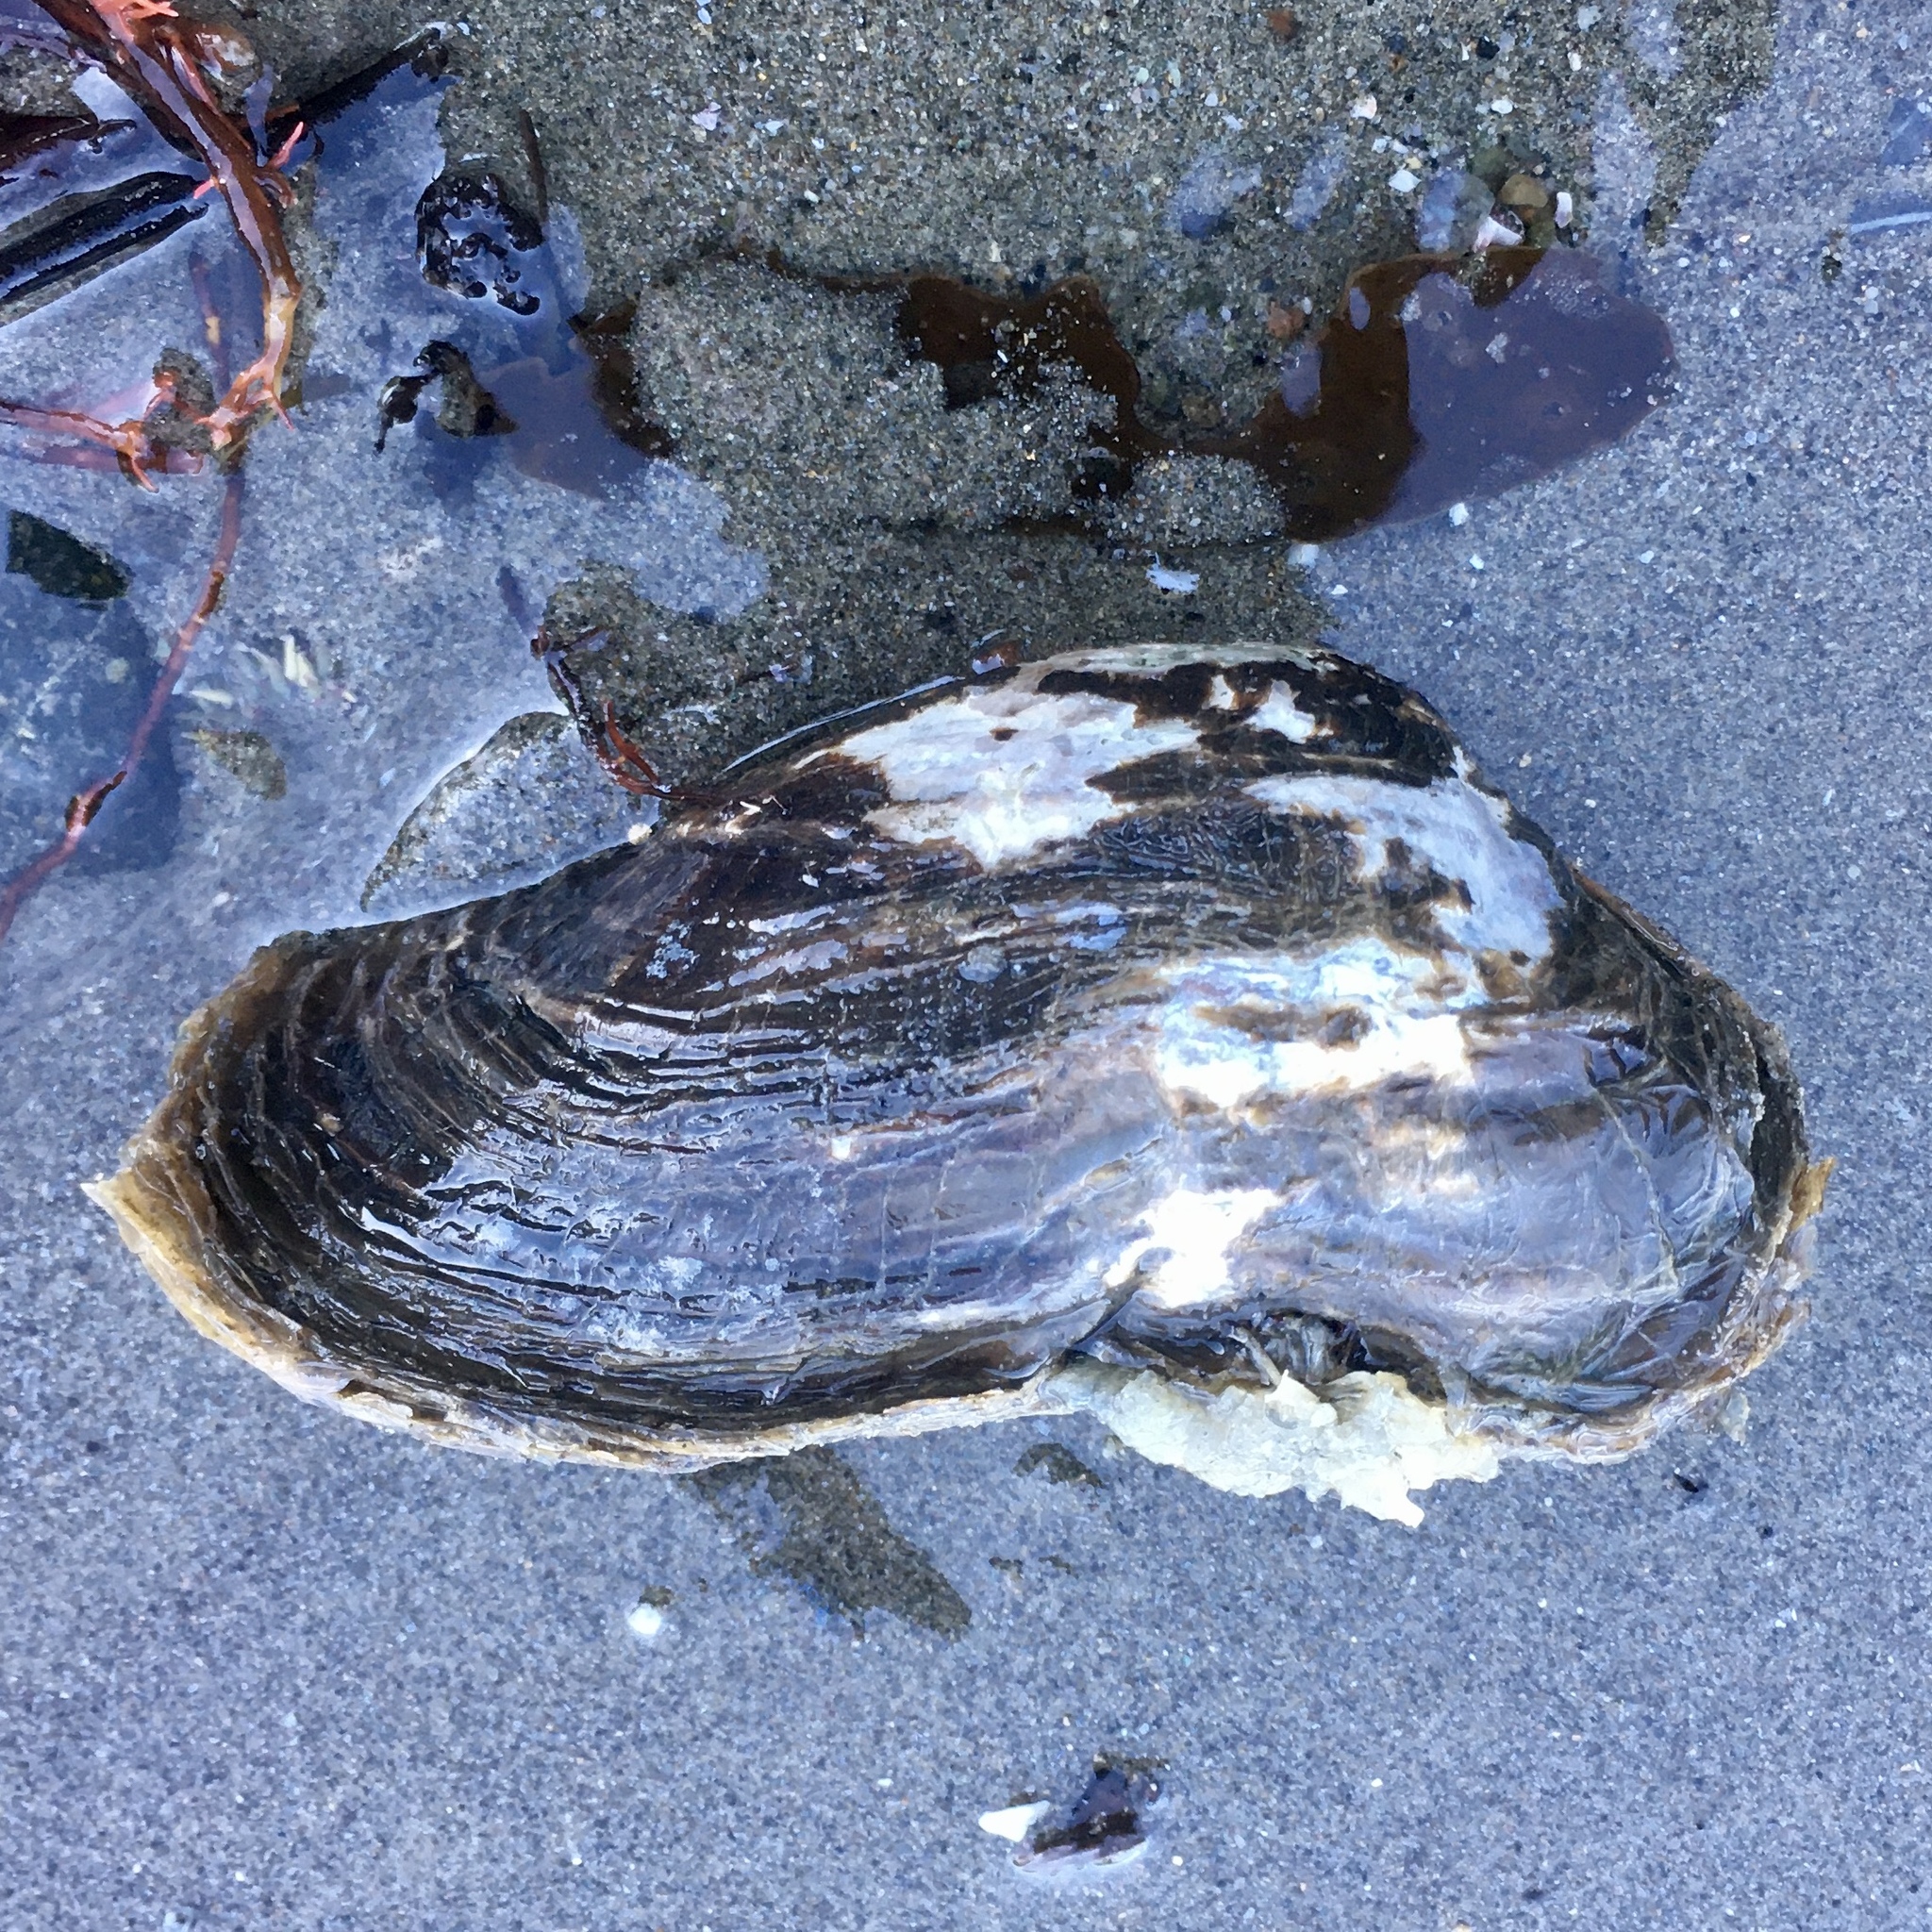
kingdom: Animalia
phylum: Mollusca
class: Bivalvia
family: Lyonsiidae
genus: Entodesma
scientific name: Entodesma navicula
